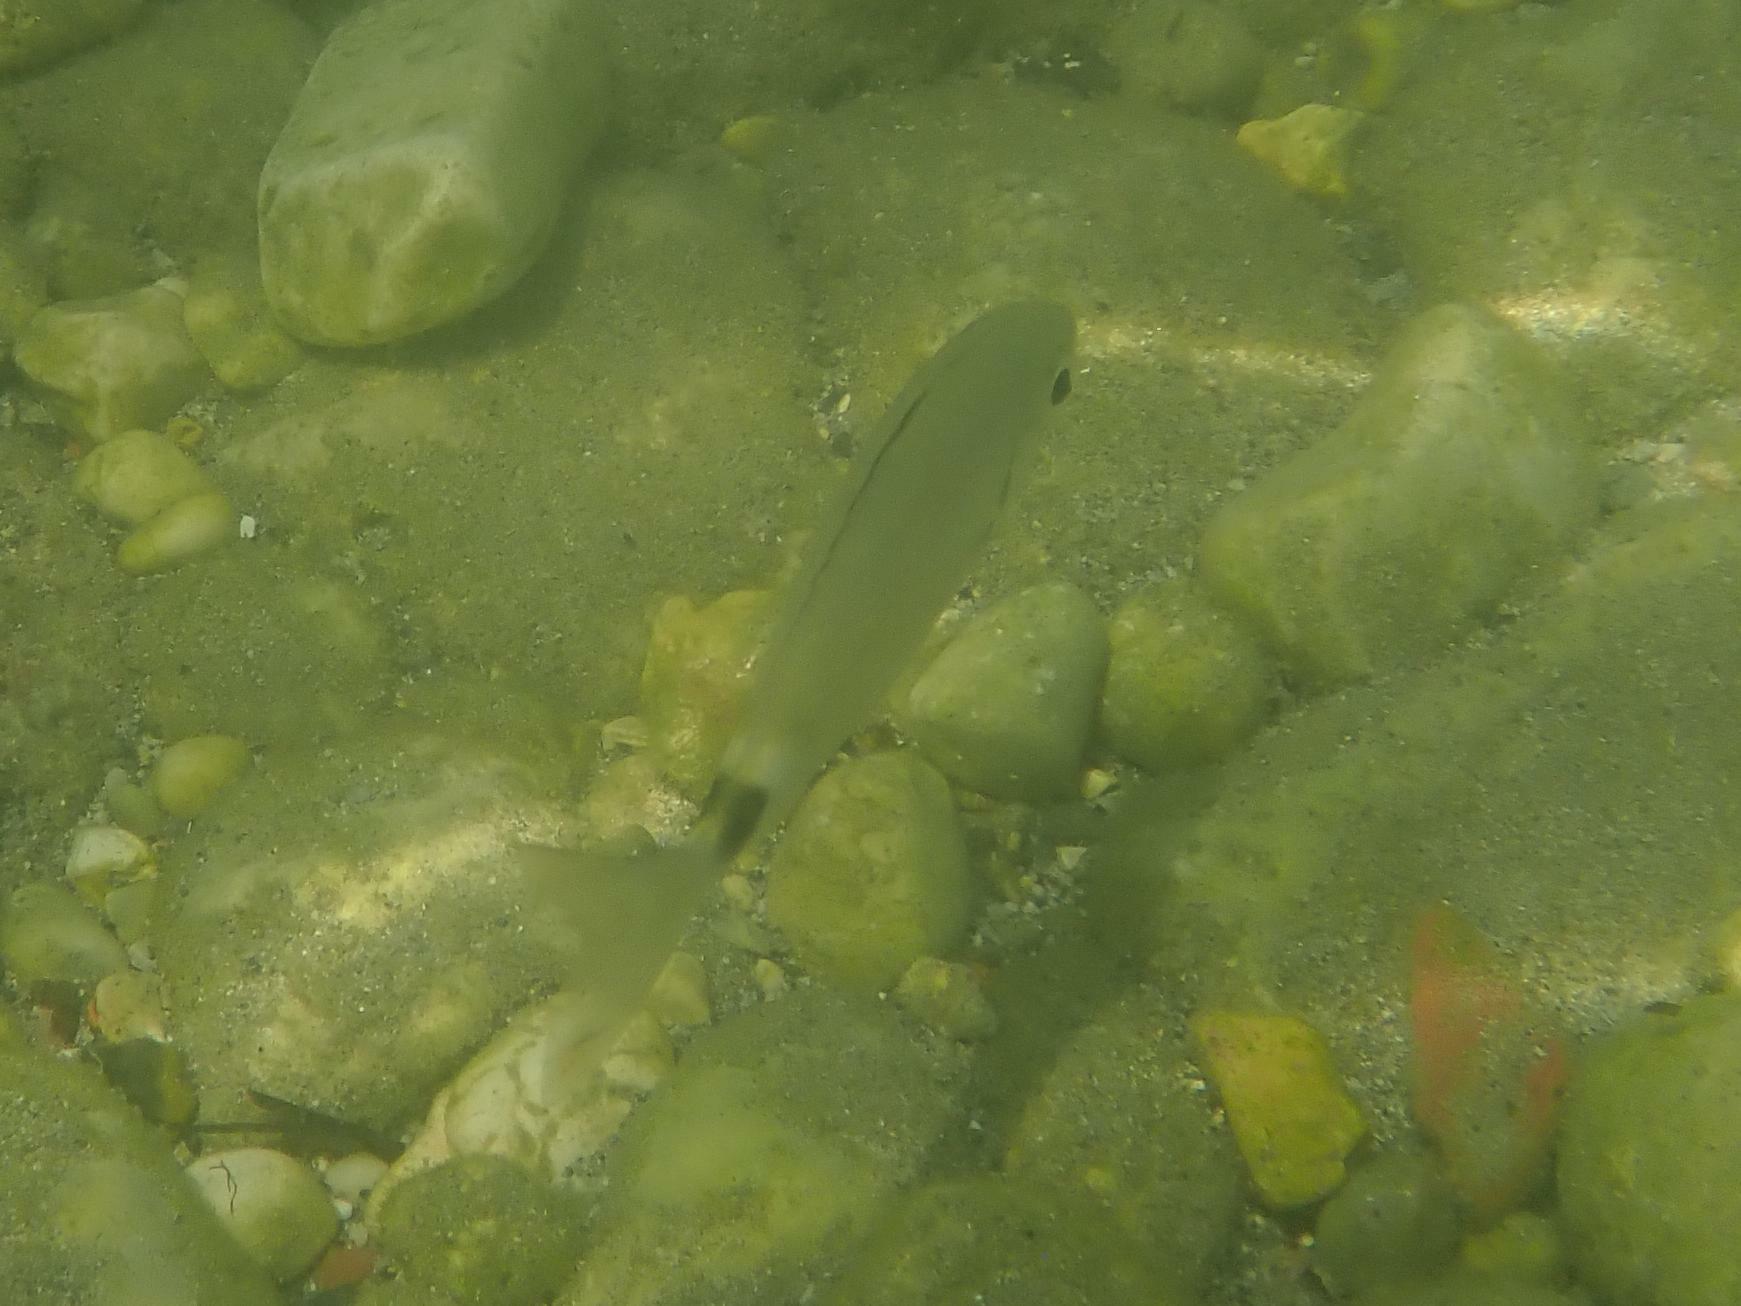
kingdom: Animalia
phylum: Chordata
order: Perciformes
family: Sparidae
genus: Oblada
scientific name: Oblada melanura
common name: Saddled seabream
